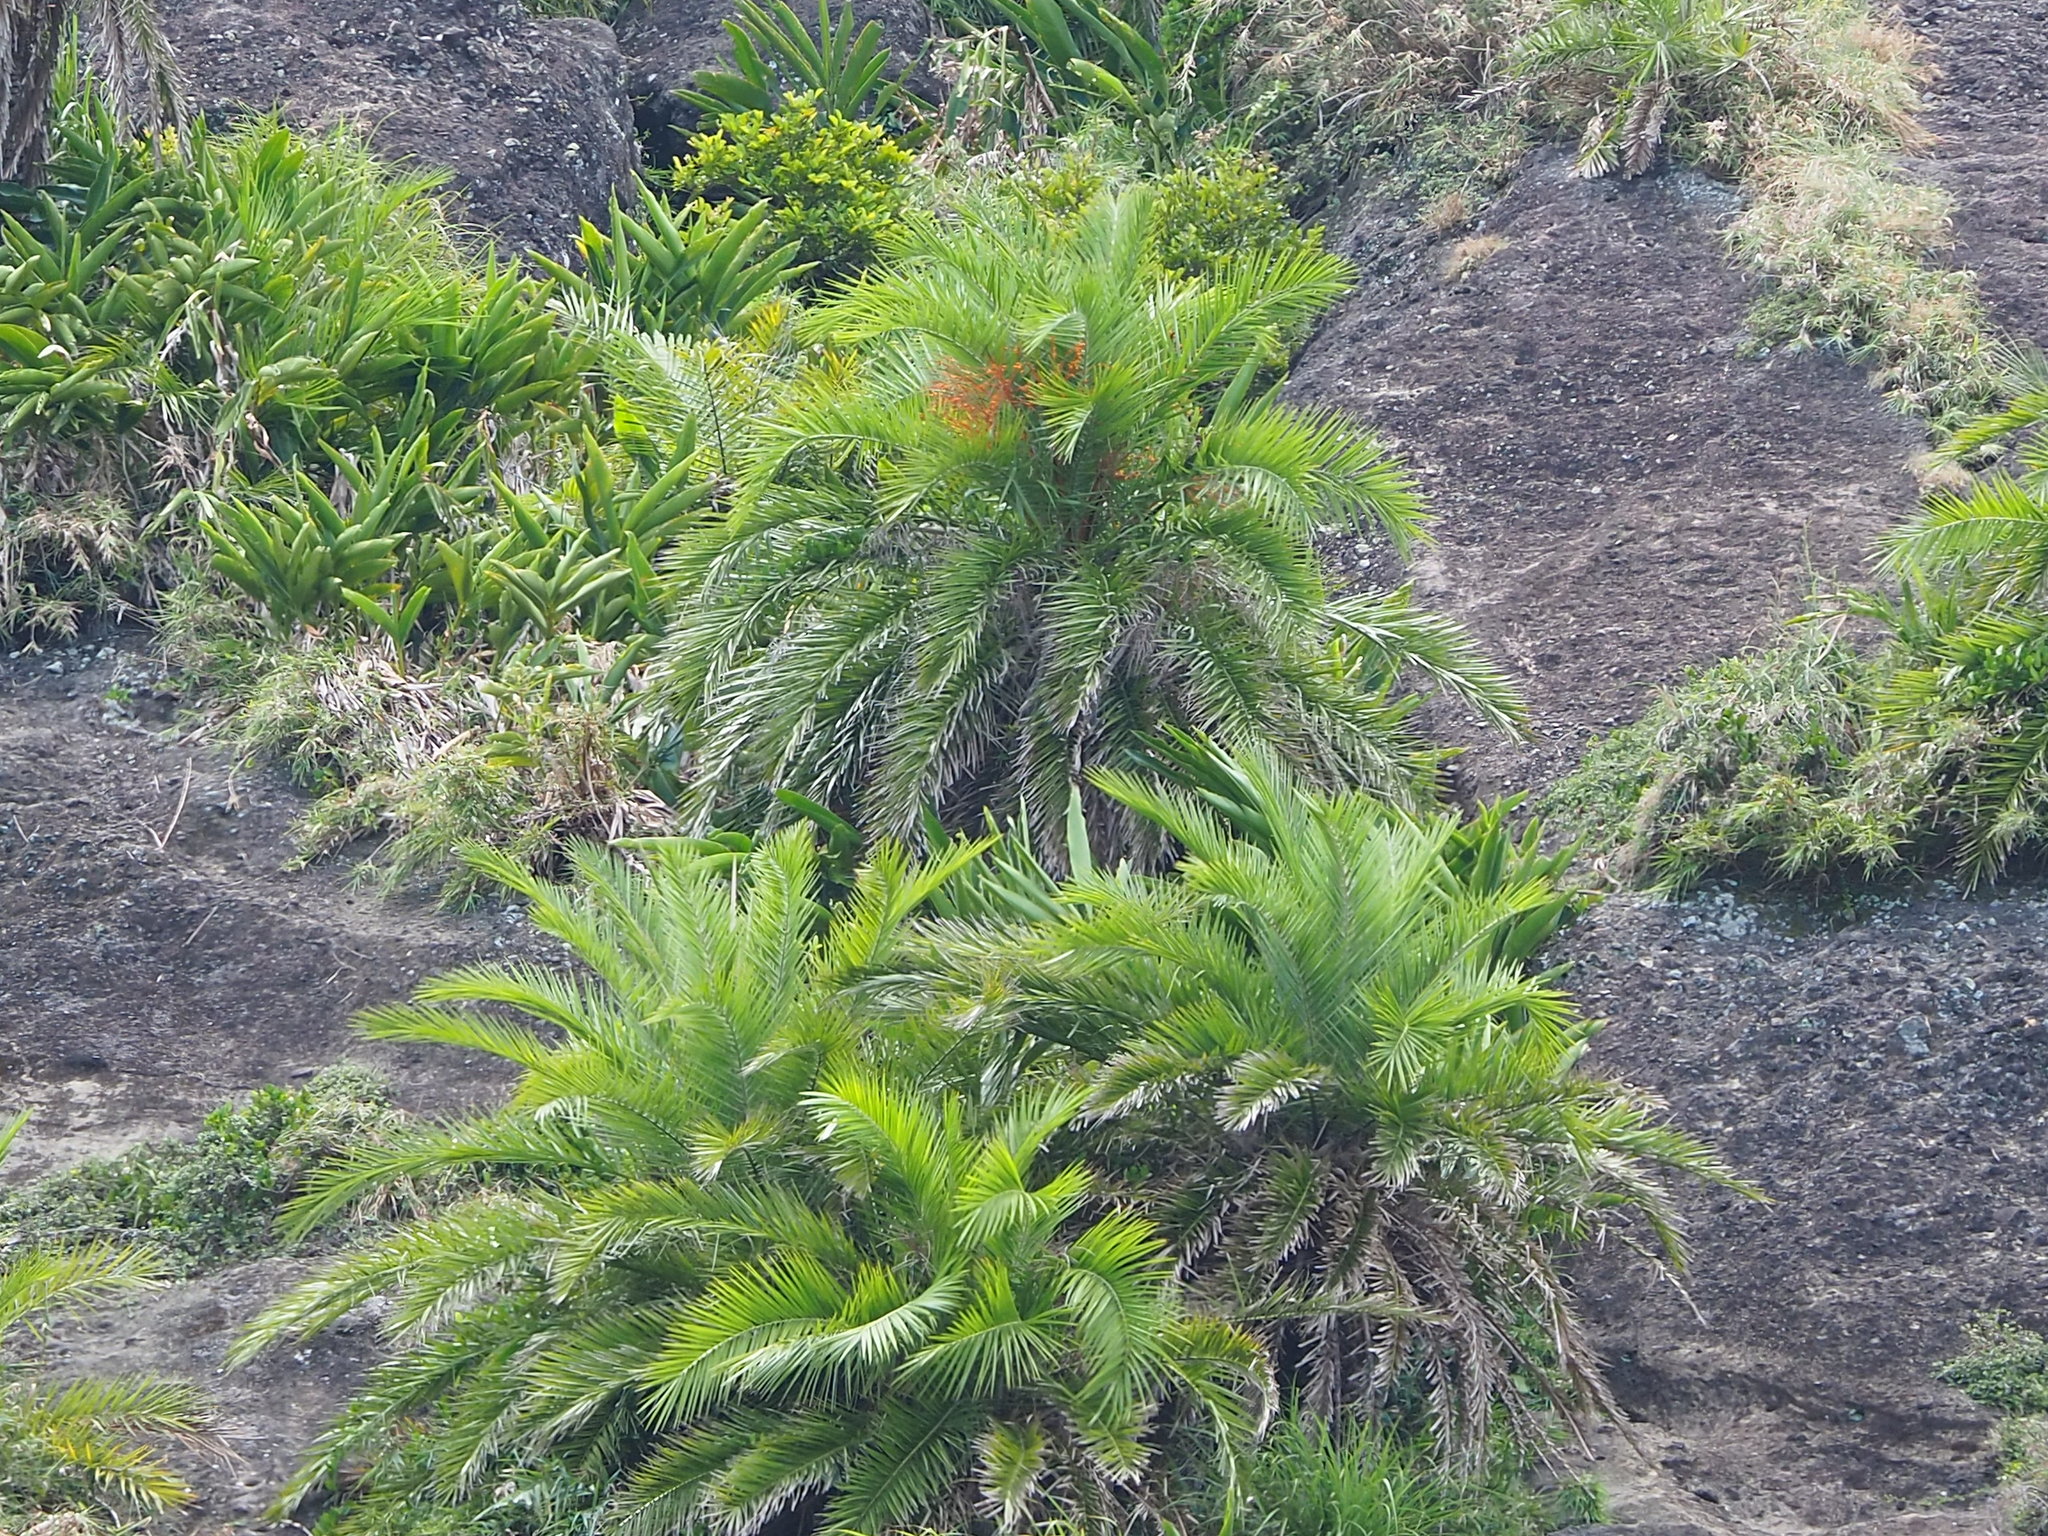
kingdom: Plantae
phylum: Tracheophyta
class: Liliopsida
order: Arecales
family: Arecaceae
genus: Phoenix
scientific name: Phoenix loureiroi
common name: Loureiro's palm
